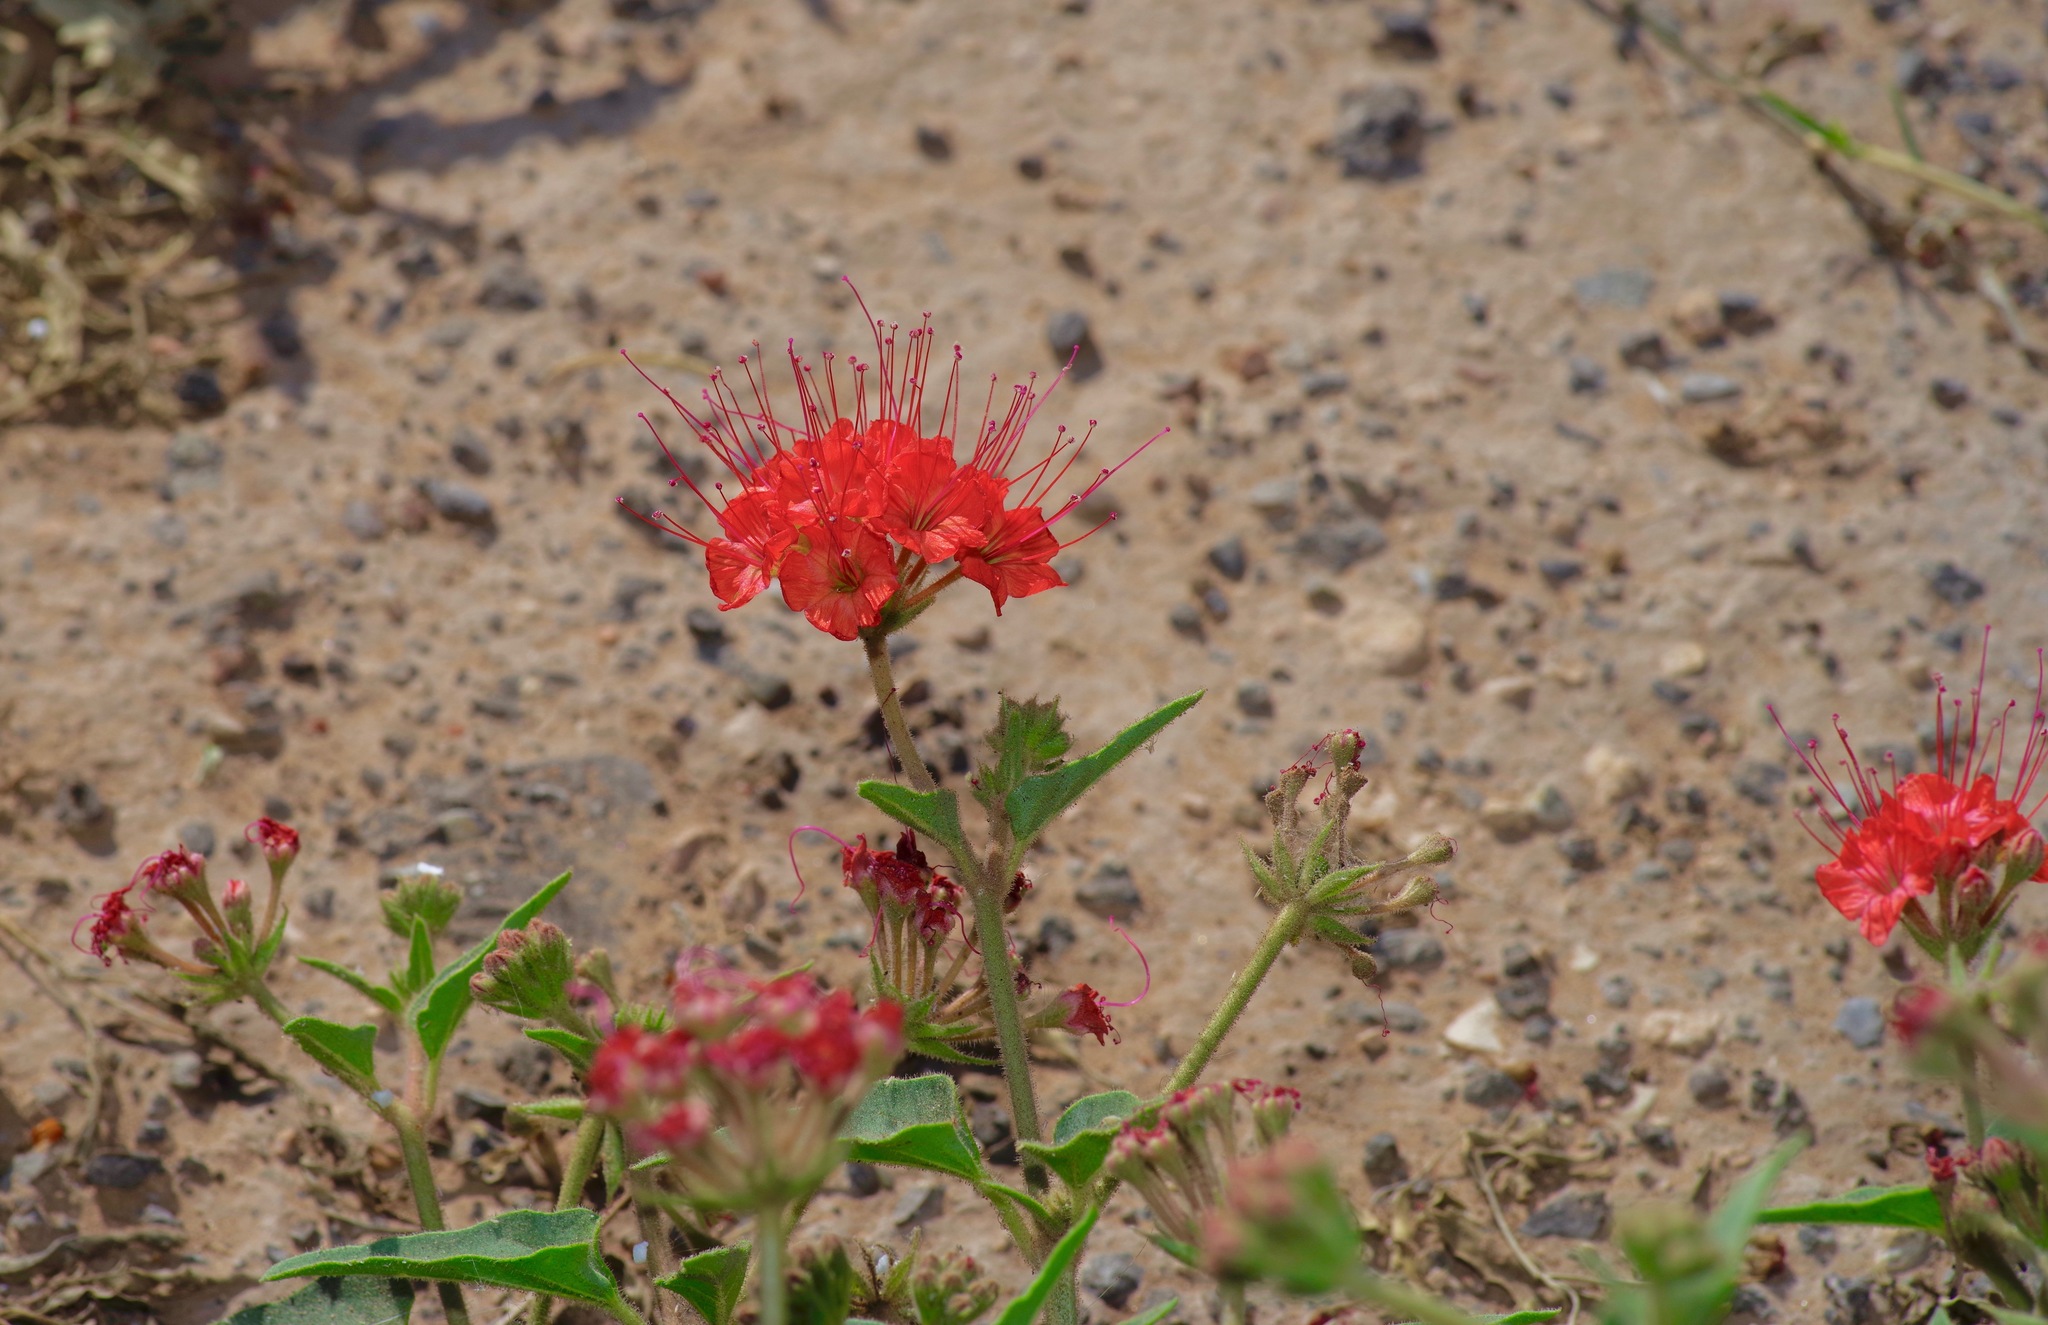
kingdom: Plantae
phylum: Tracheophyta
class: Magnoliopsida
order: Caryophyllales
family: Nyctaginaceae
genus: Nyctaginia
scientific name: Nyctaginia capitata
